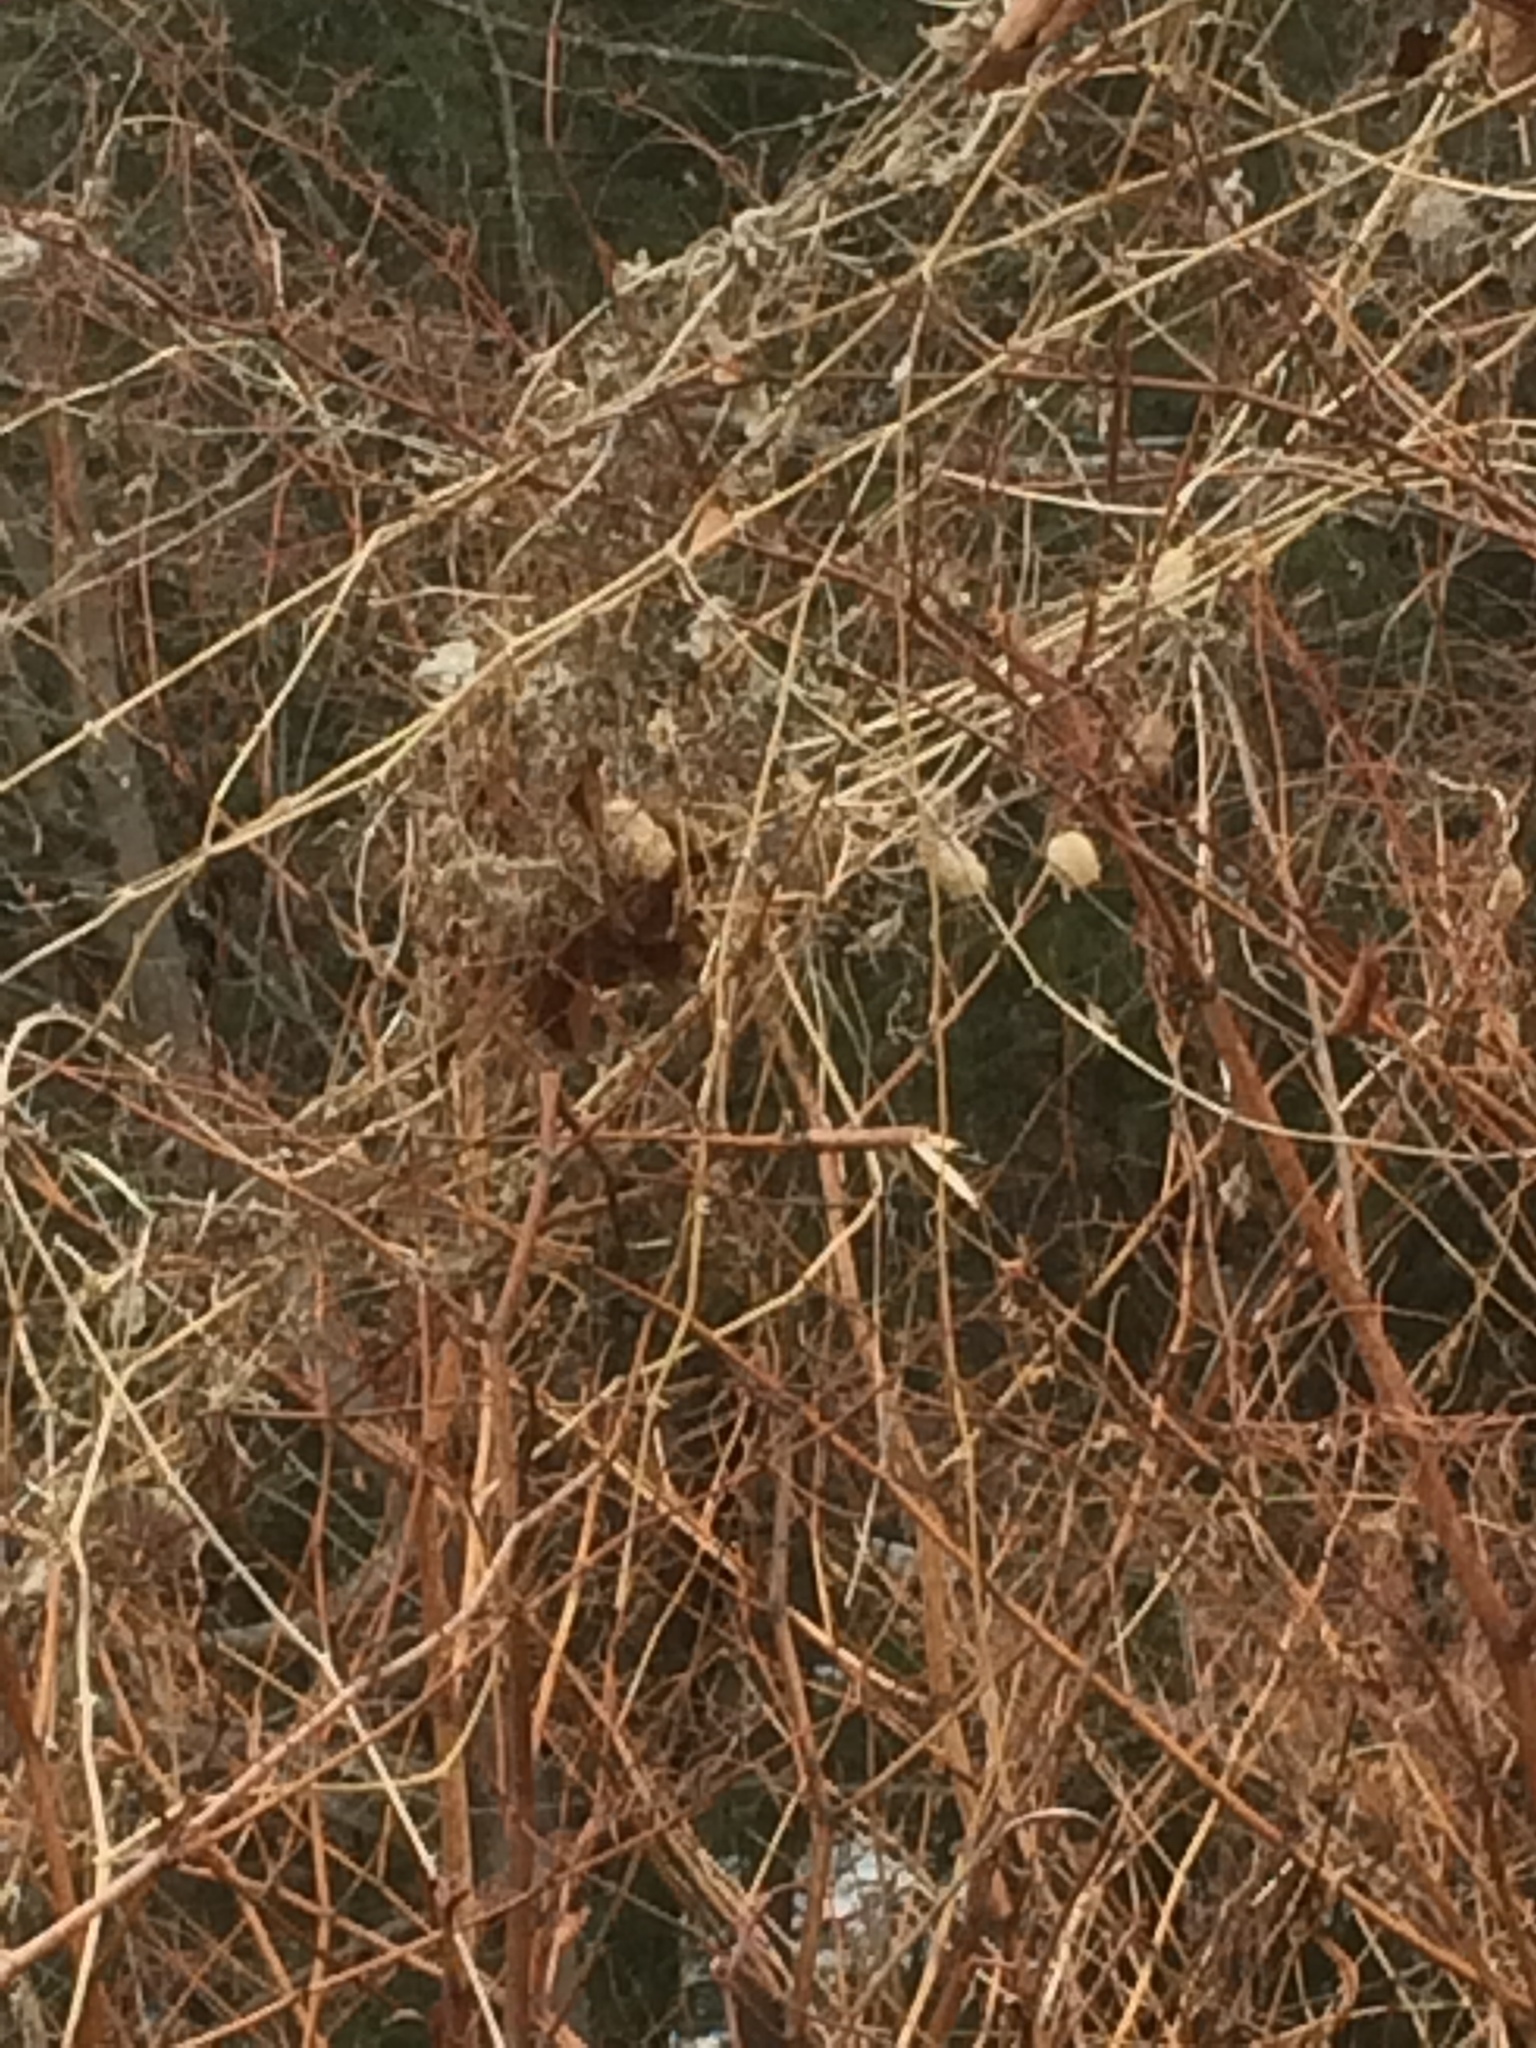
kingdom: Plantae
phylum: Tracheophyta
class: Magnoliopsida
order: Cucurbitales
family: Cucurbitaceae
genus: Echinocystis
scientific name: Echinocystis lobata
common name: Wild cucumber
